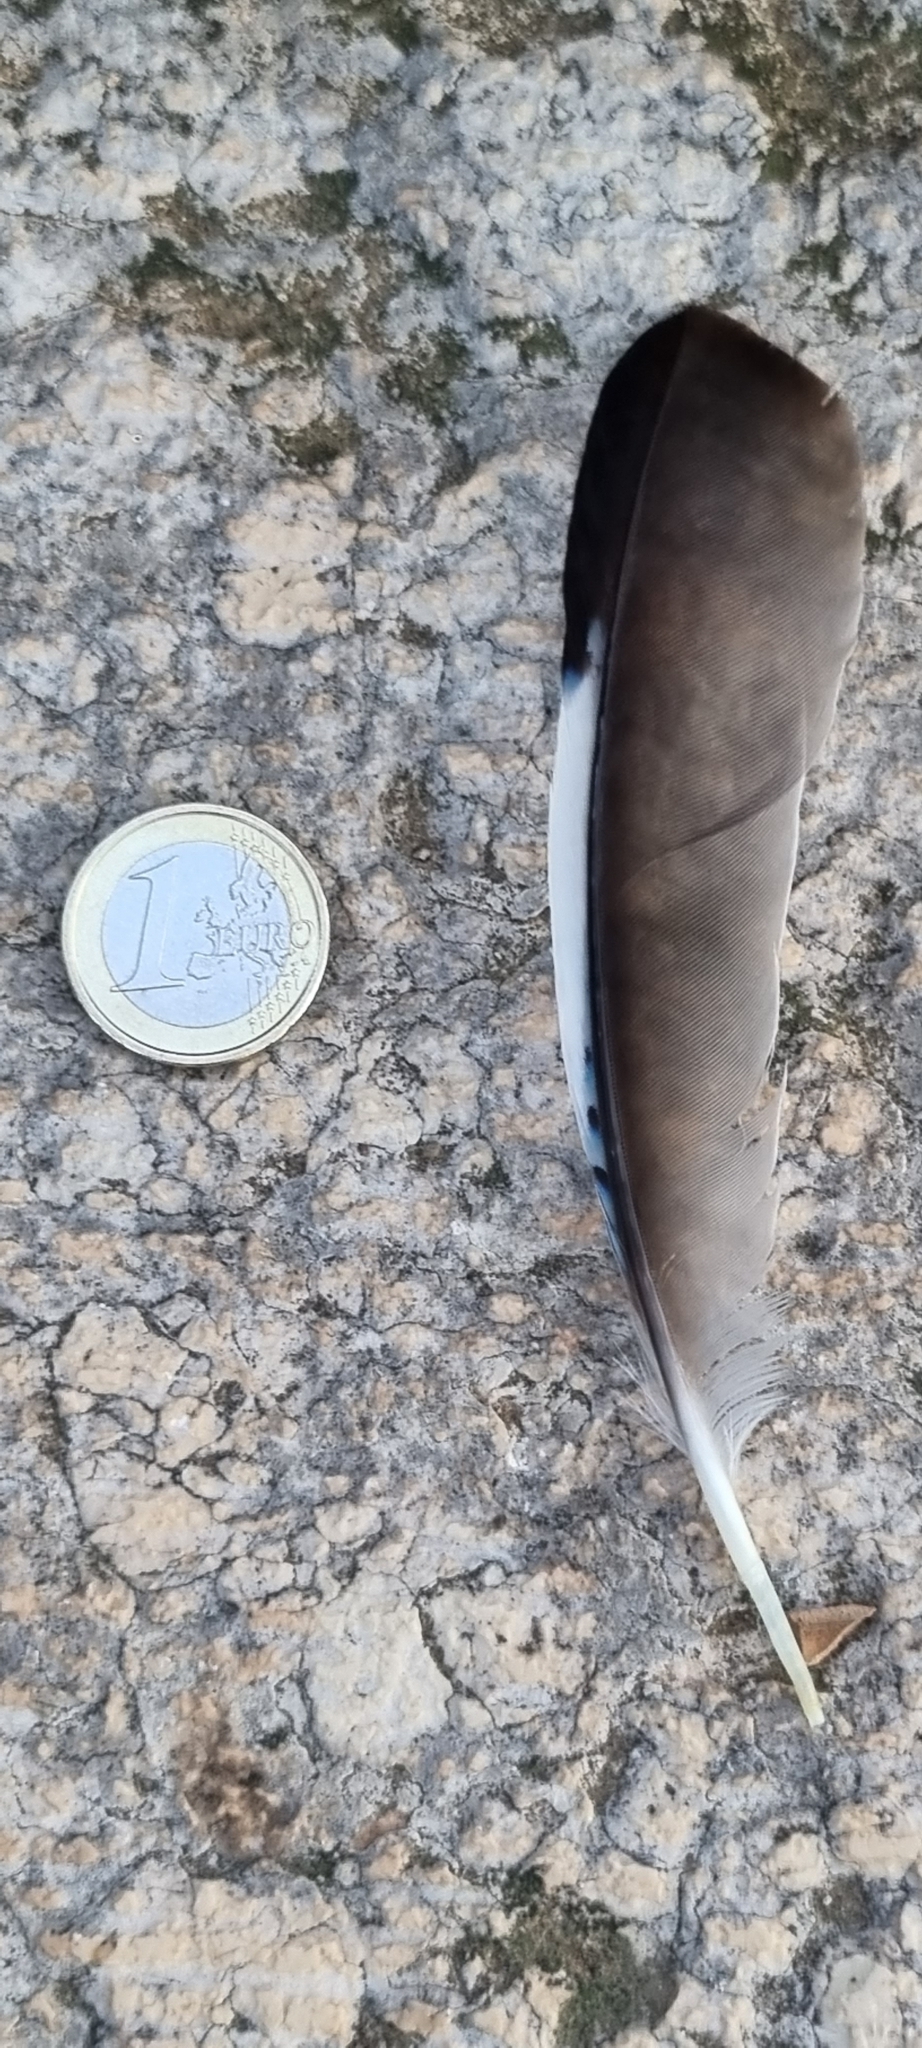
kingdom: Animalia
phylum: Chordata
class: Aves
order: Passeriformes
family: Corvidae
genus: Garrulus
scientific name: Garrulus glandarius
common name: Eurasian jay
